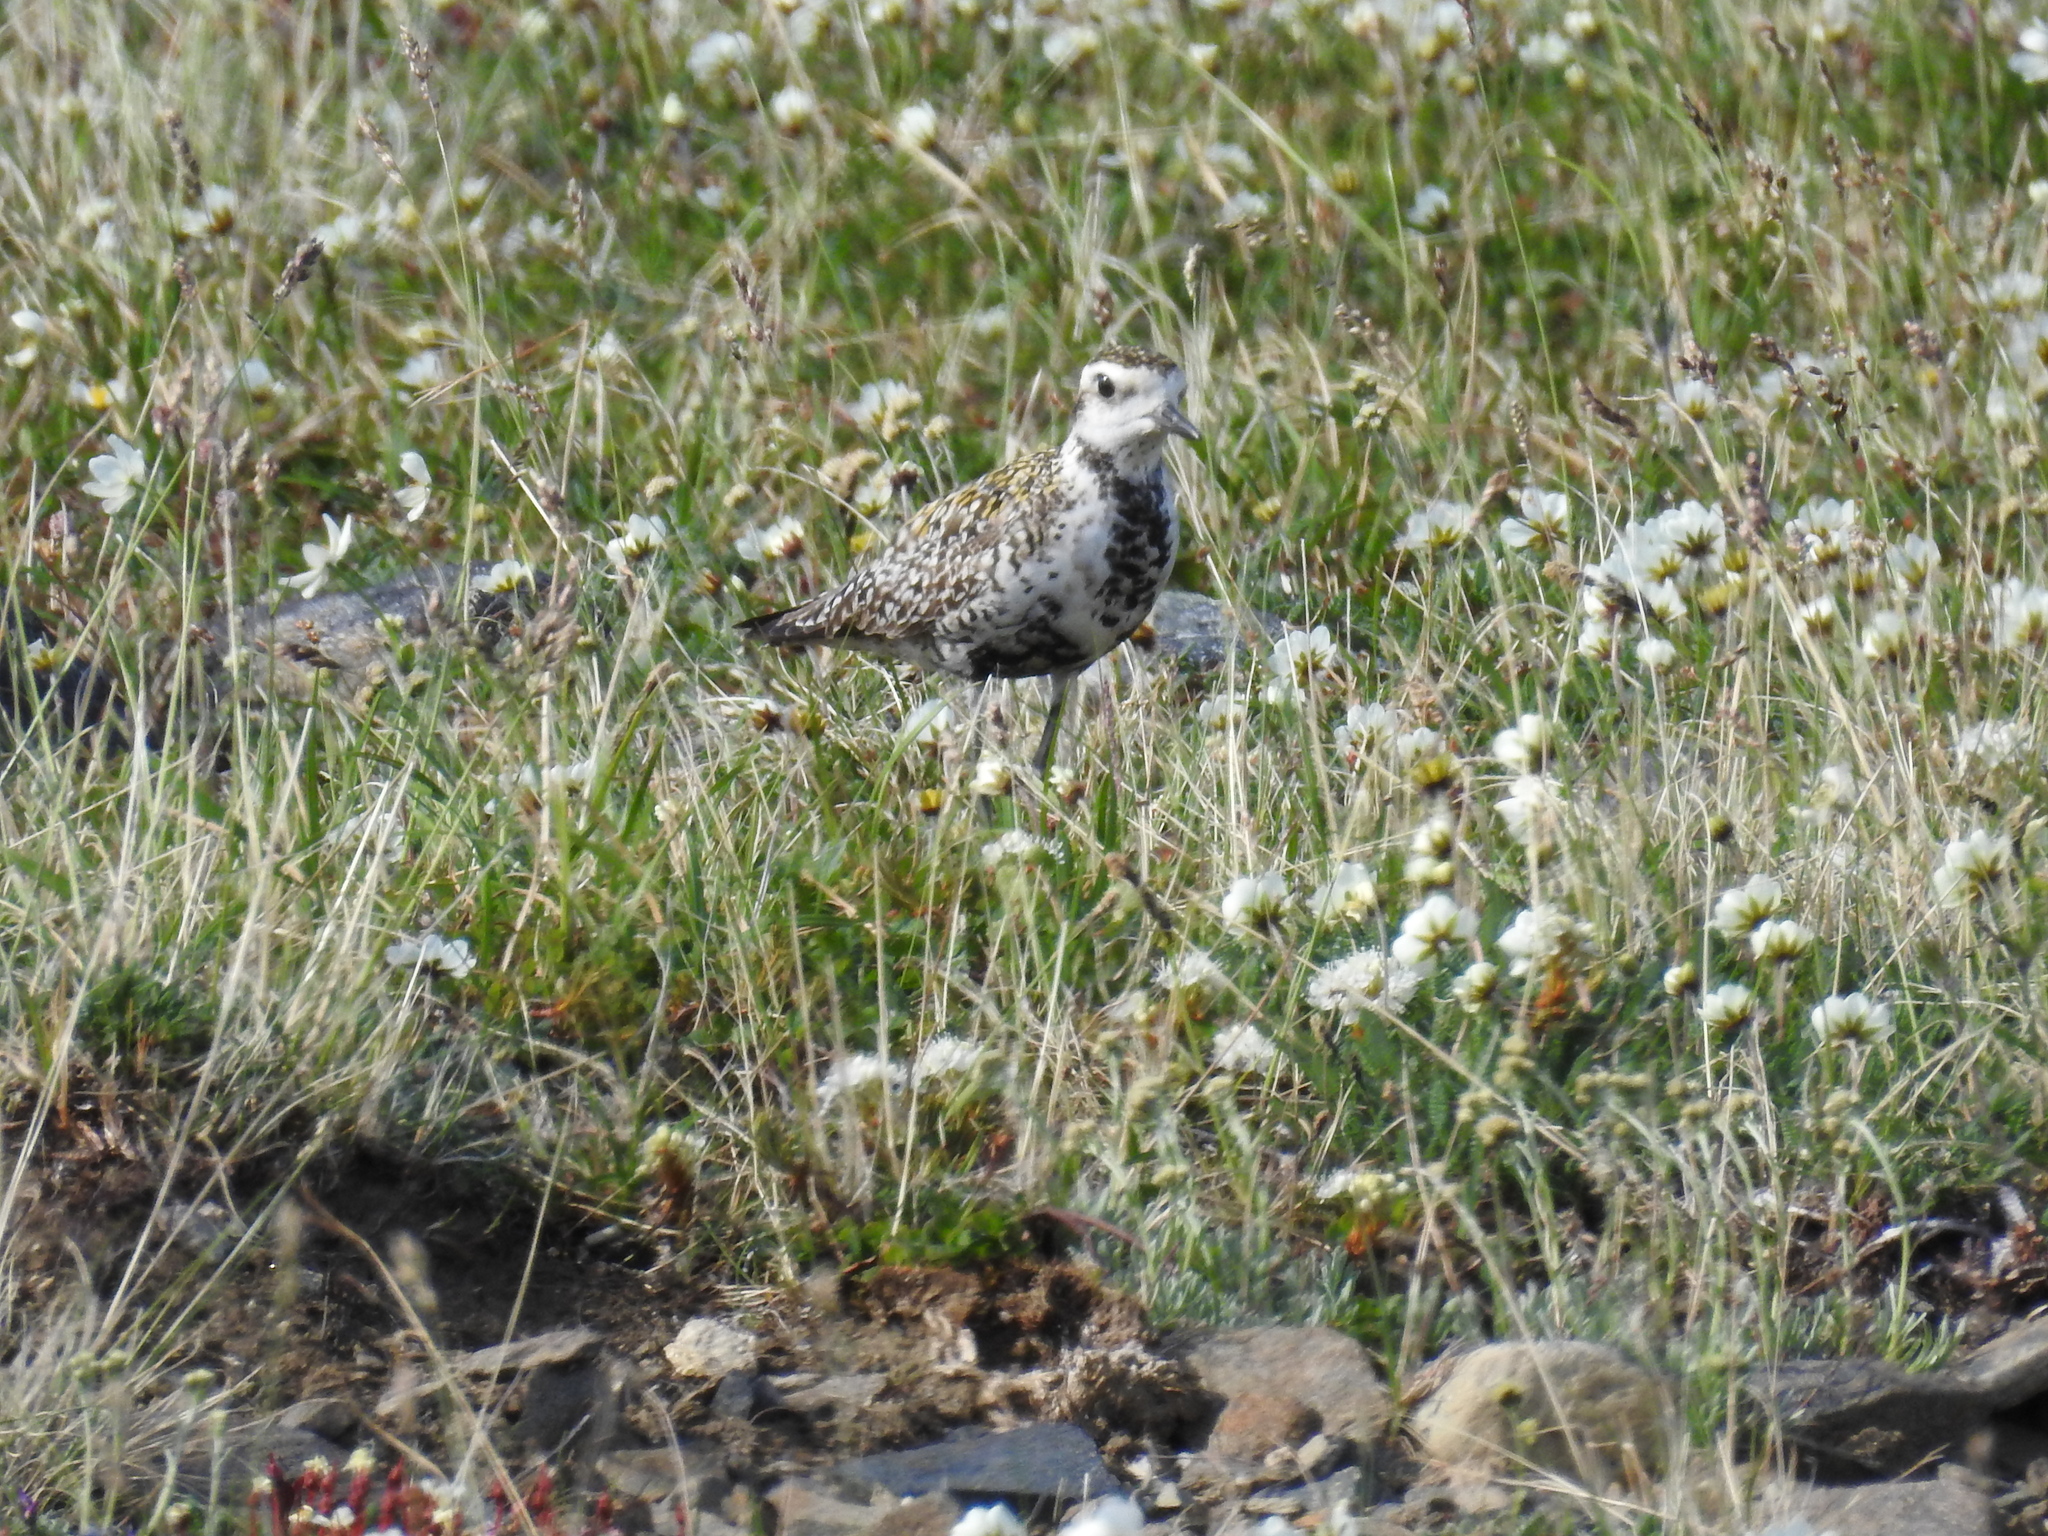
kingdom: Animalia
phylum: Chordata
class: Aves
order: Charadriiformes
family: Charadriidae
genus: Pluvialis
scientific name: Pluvialis fulva
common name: Pacific golden plover
